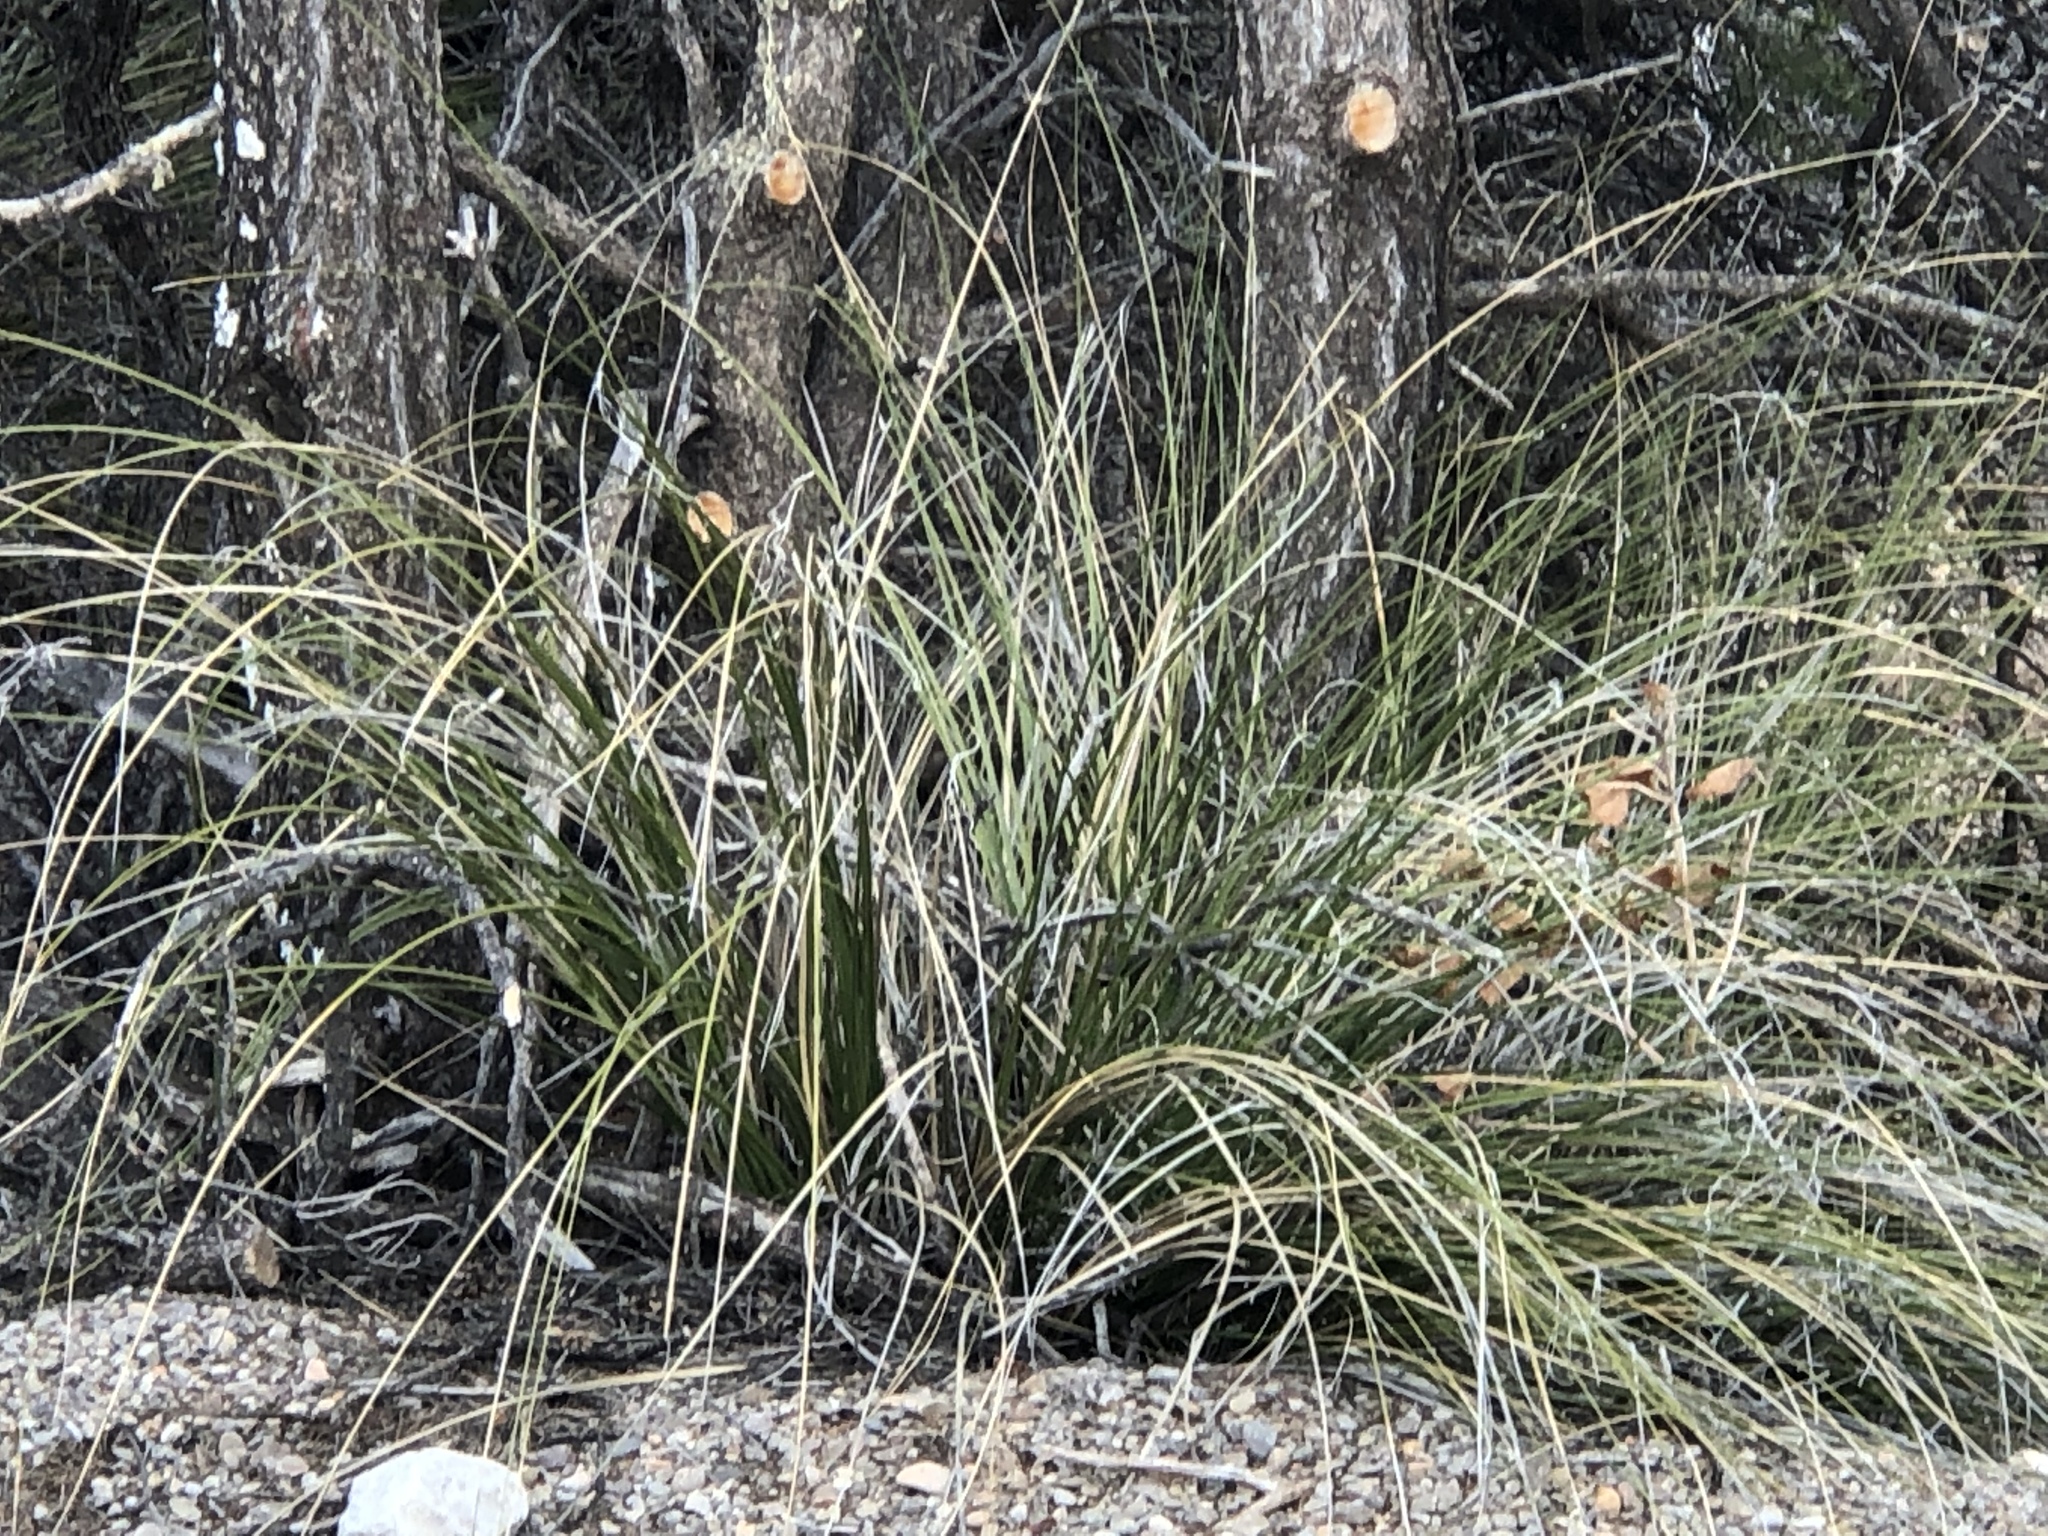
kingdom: Plantae
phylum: Tracheophyta
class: Liliopsida
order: Asparagales
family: Asparagaceae
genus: Nolina
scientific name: Nolina texana
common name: Texas sacahuiste
